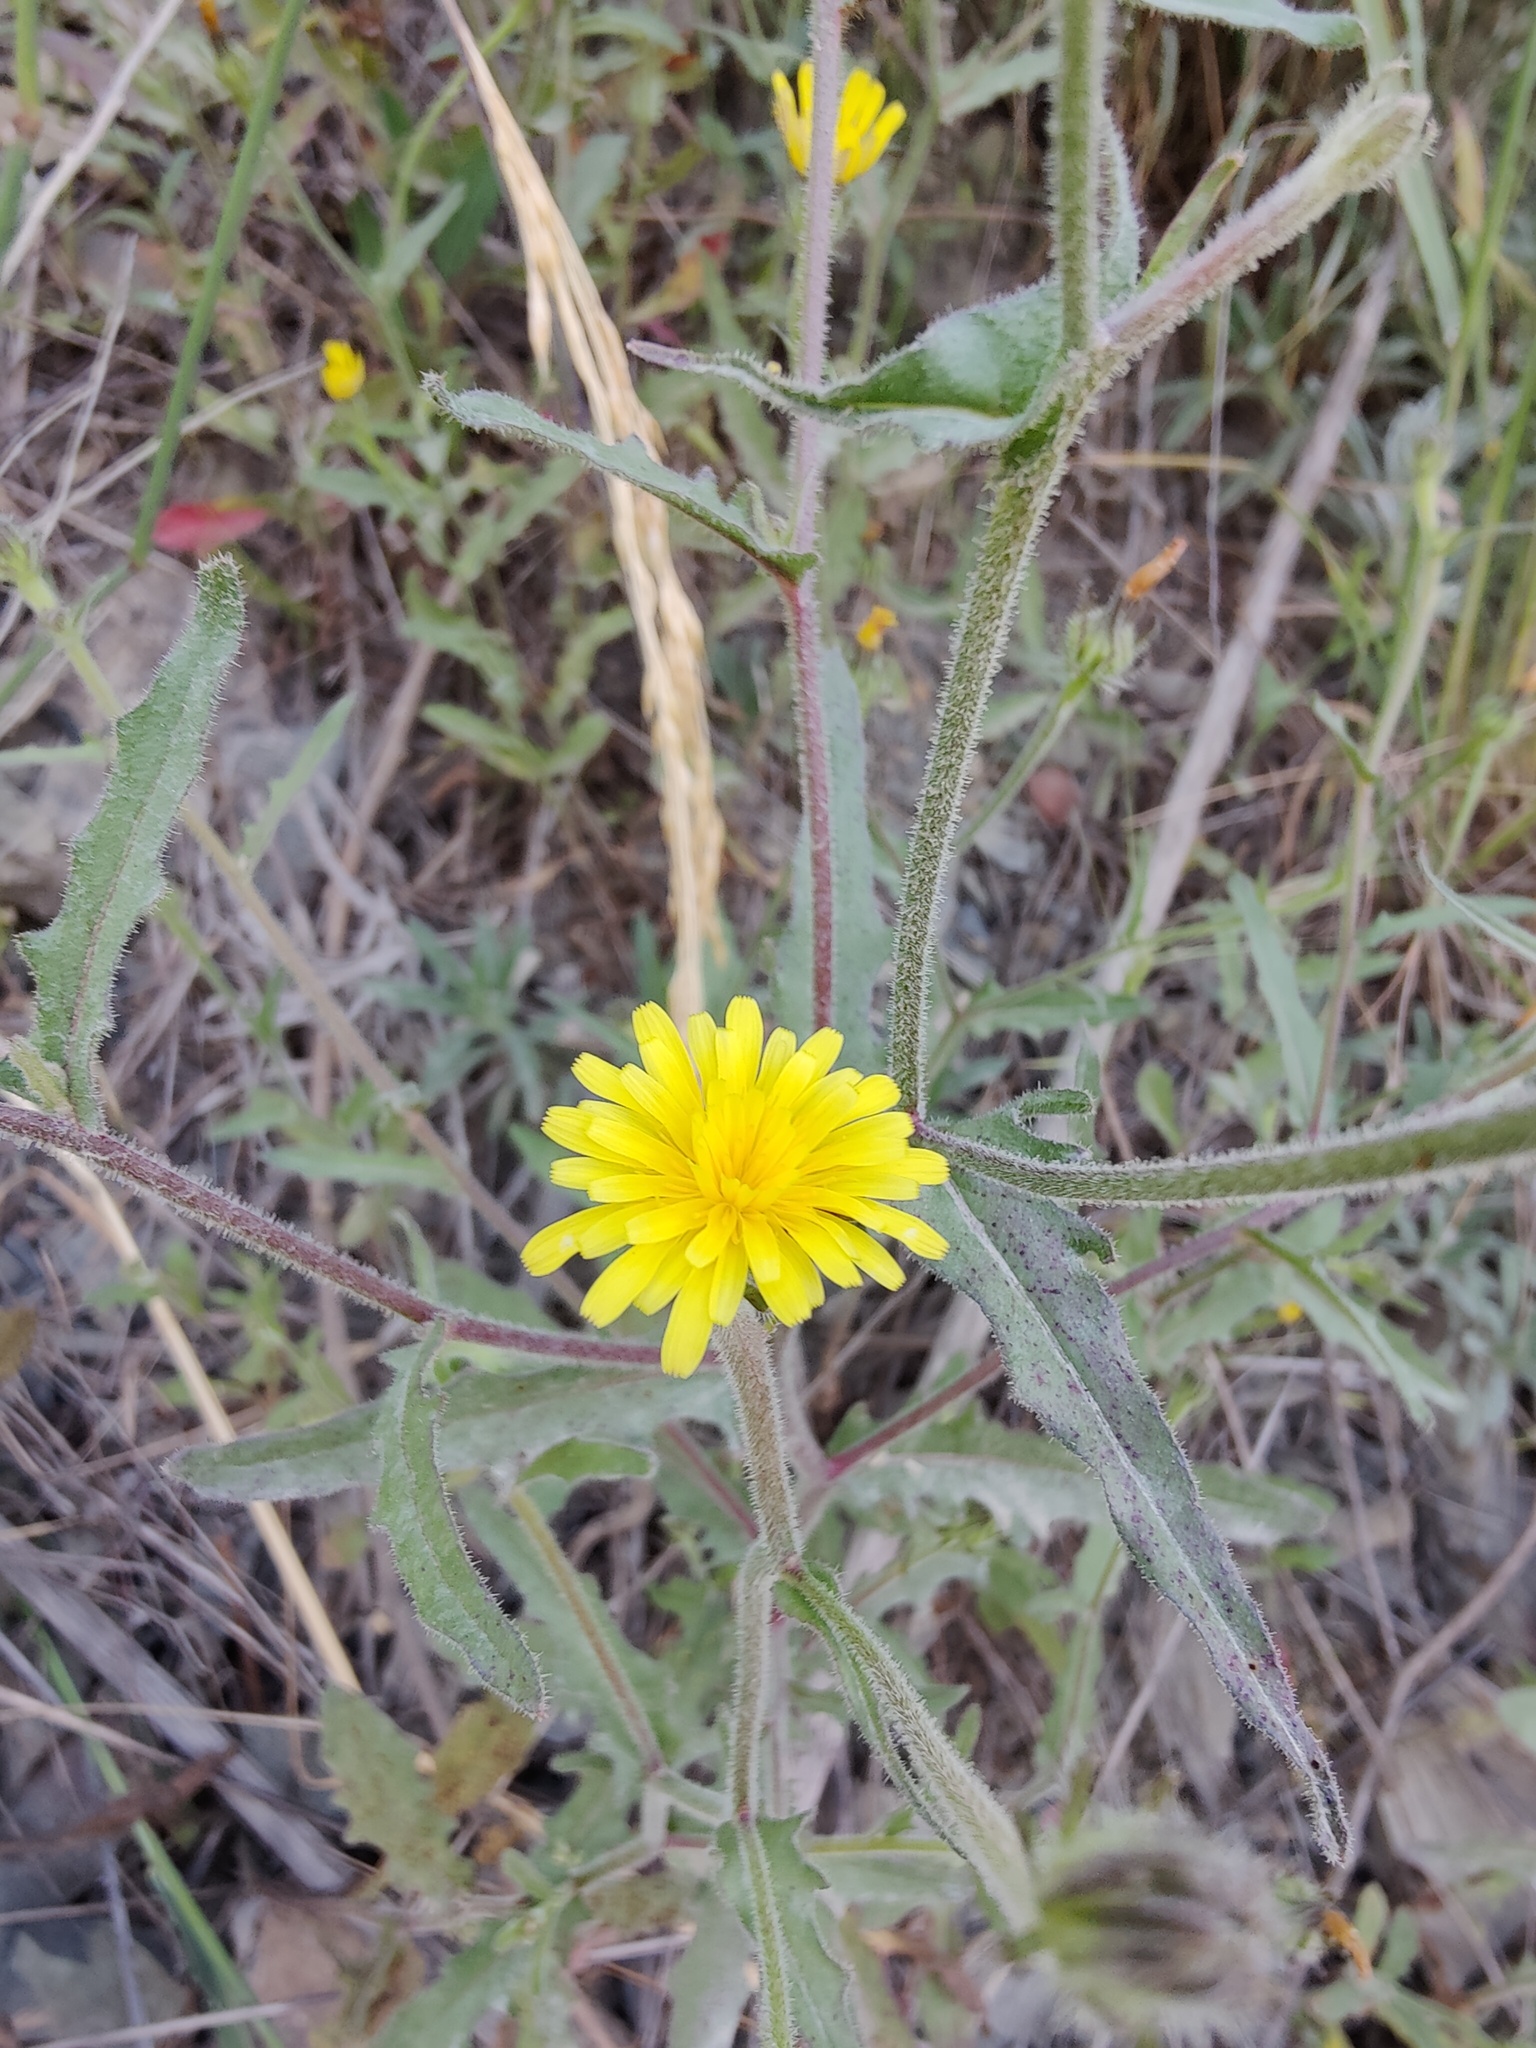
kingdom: Plantae
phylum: Tracheophyta
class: Magnoliopsida
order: Asterales
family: Asteraceae
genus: Picris
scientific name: Picris pauciflora
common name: Smallflower oxtongue
